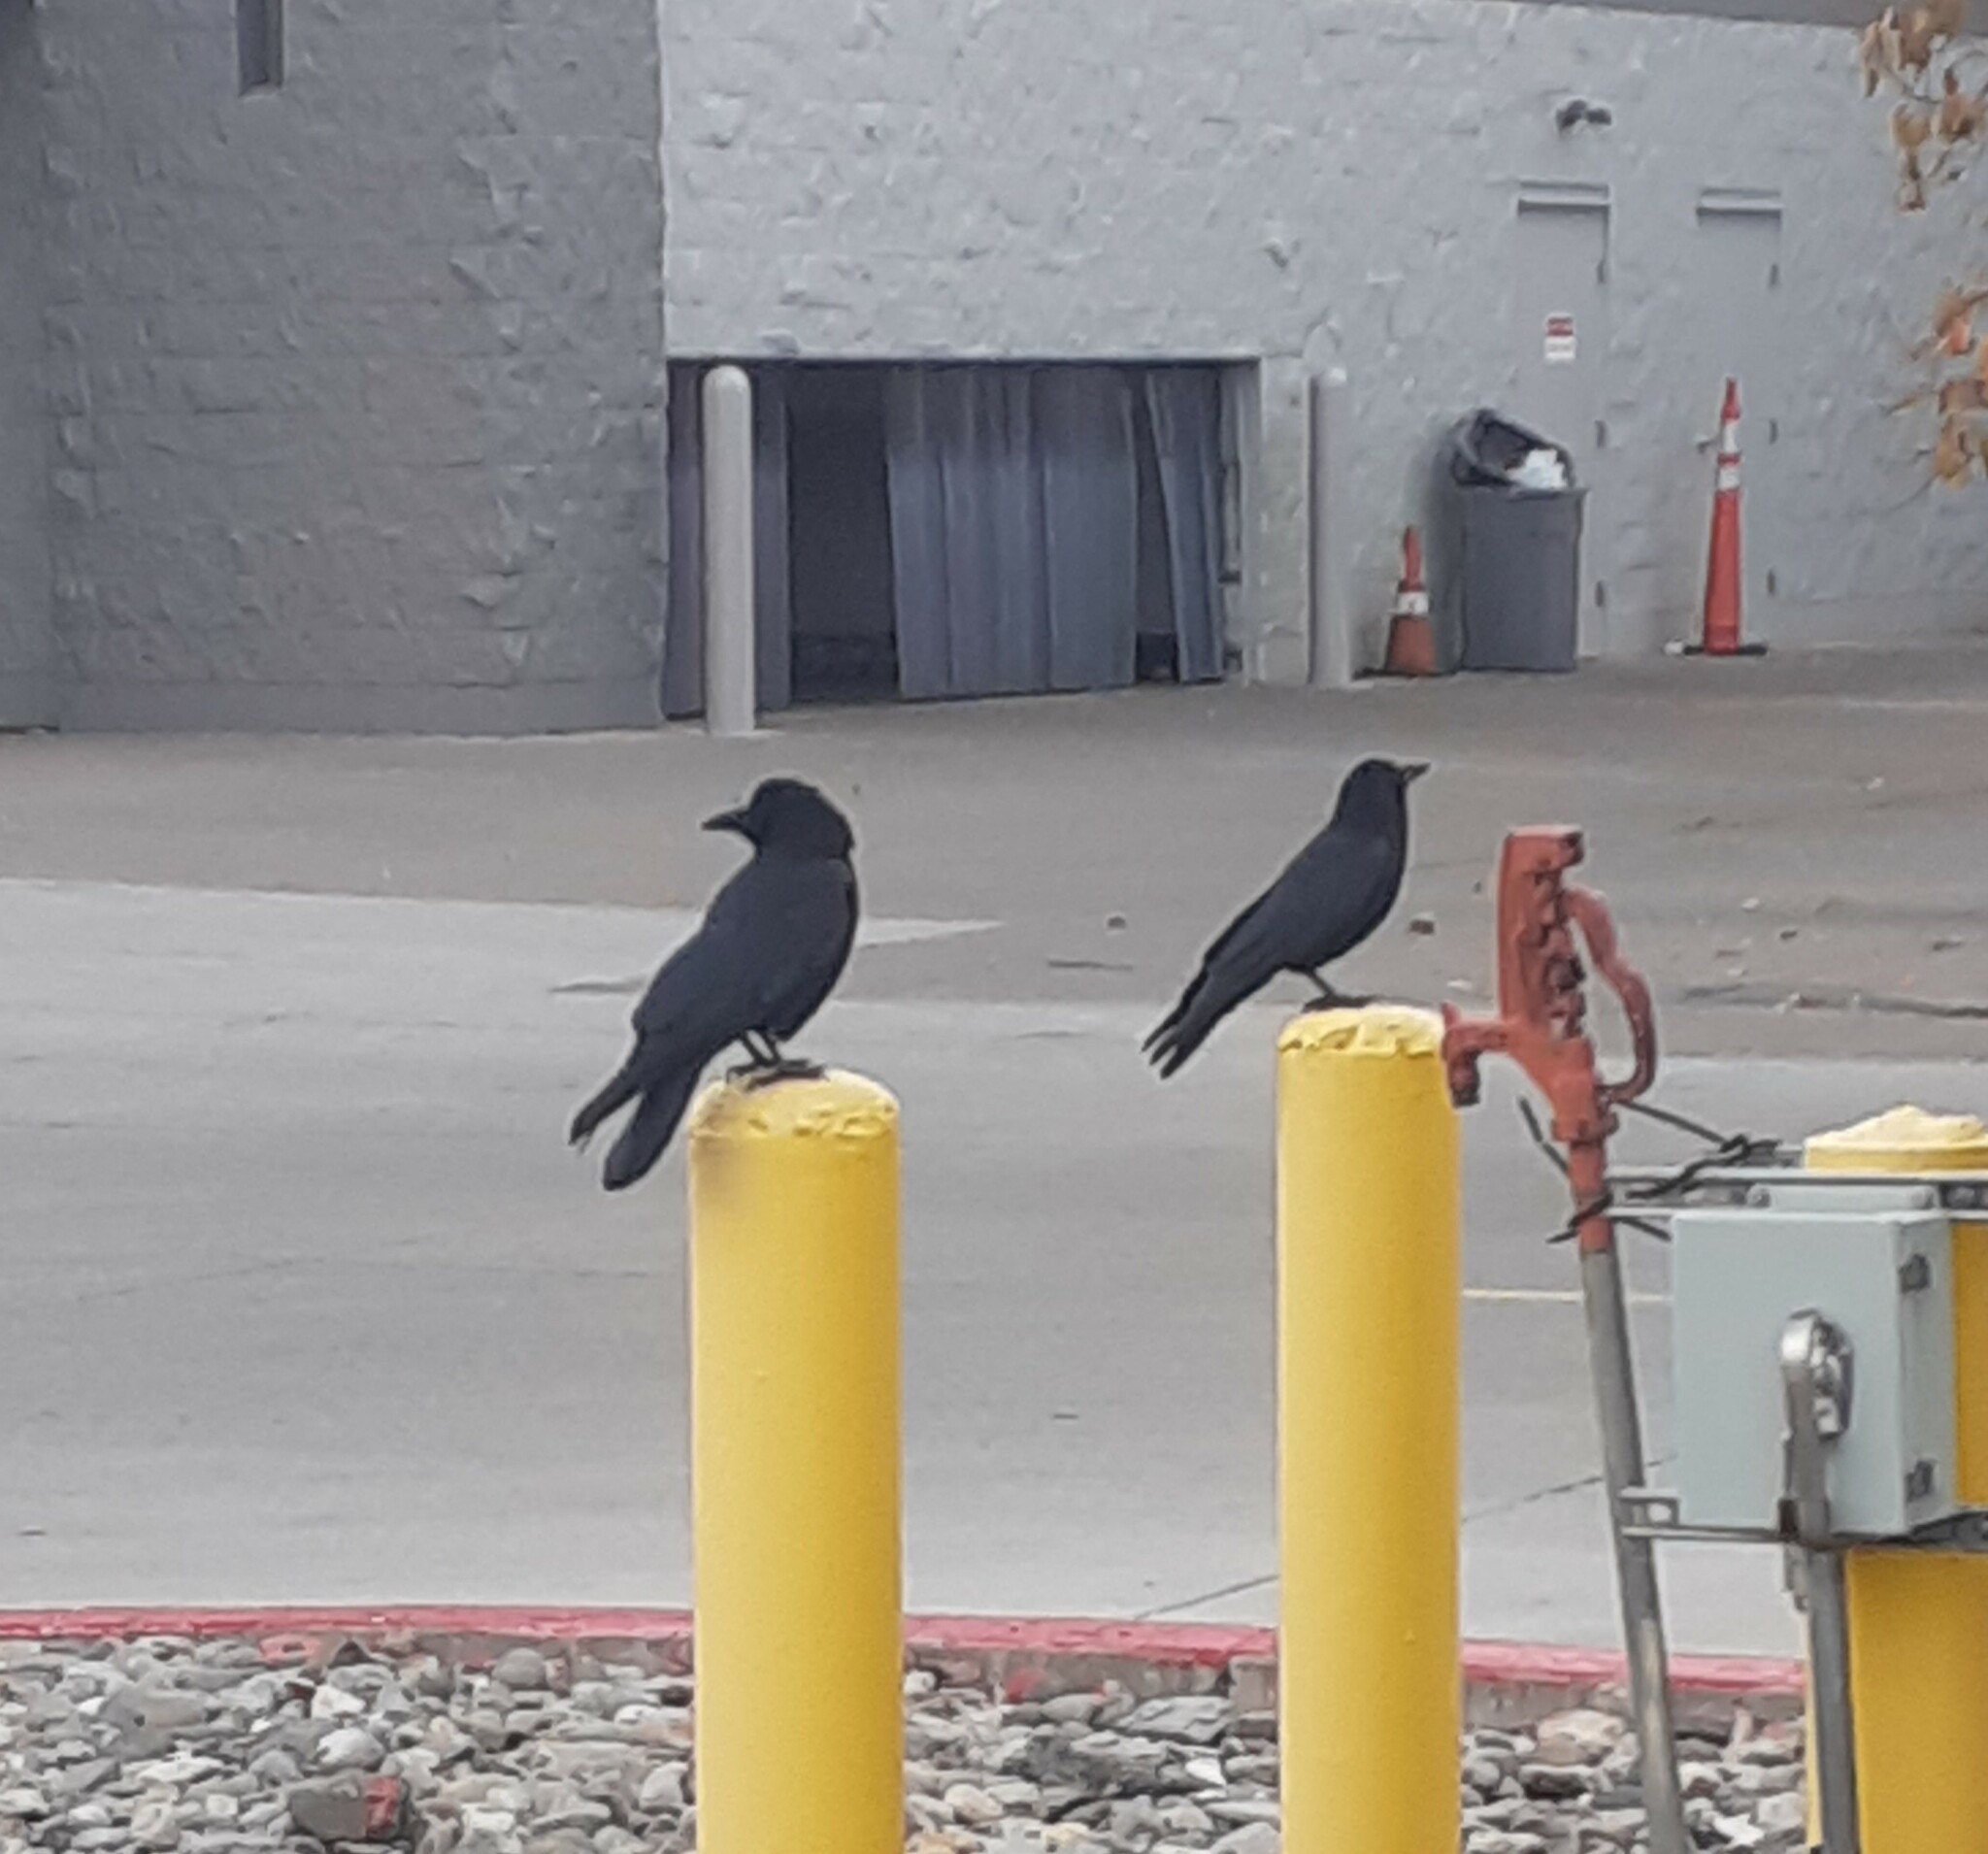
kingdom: Animalia
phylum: Chordata
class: Aves
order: Passeriformes
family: Corvidae
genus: Corvus
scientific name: Corvus brachyrhynchos
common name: American crow
